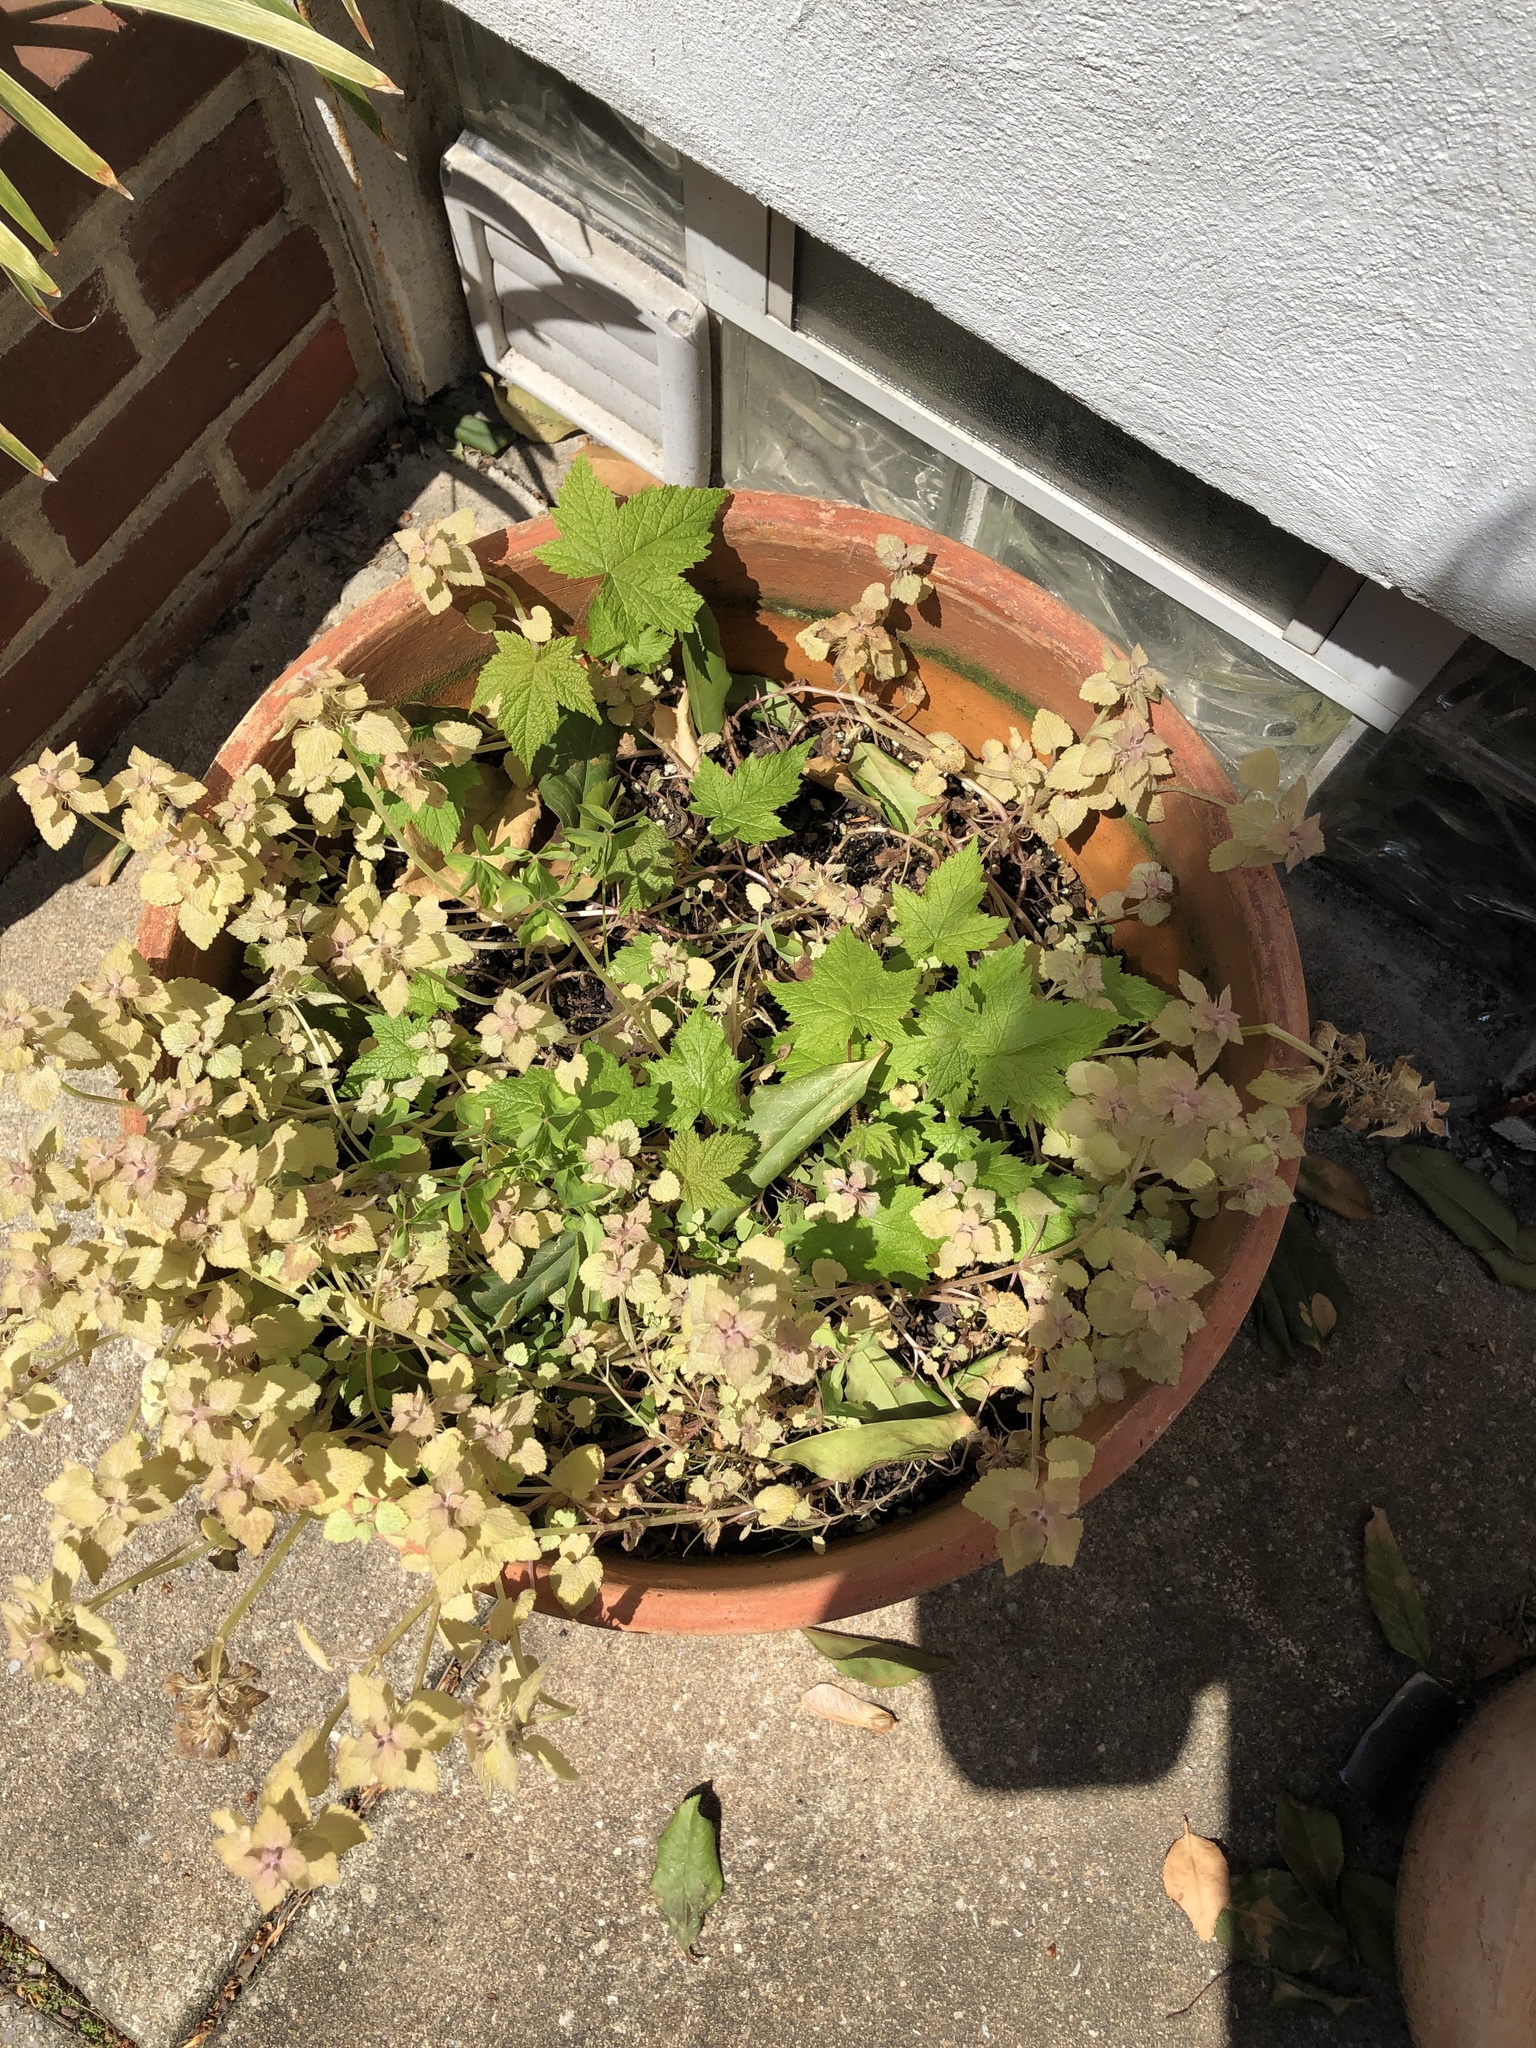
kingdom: Plantae
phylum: Tracheophyta
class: Magnoliopsida
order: Lamiales
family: Lamiaceae
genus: Lamium
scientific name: Lamium purpureum
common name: Red dead-nettle
